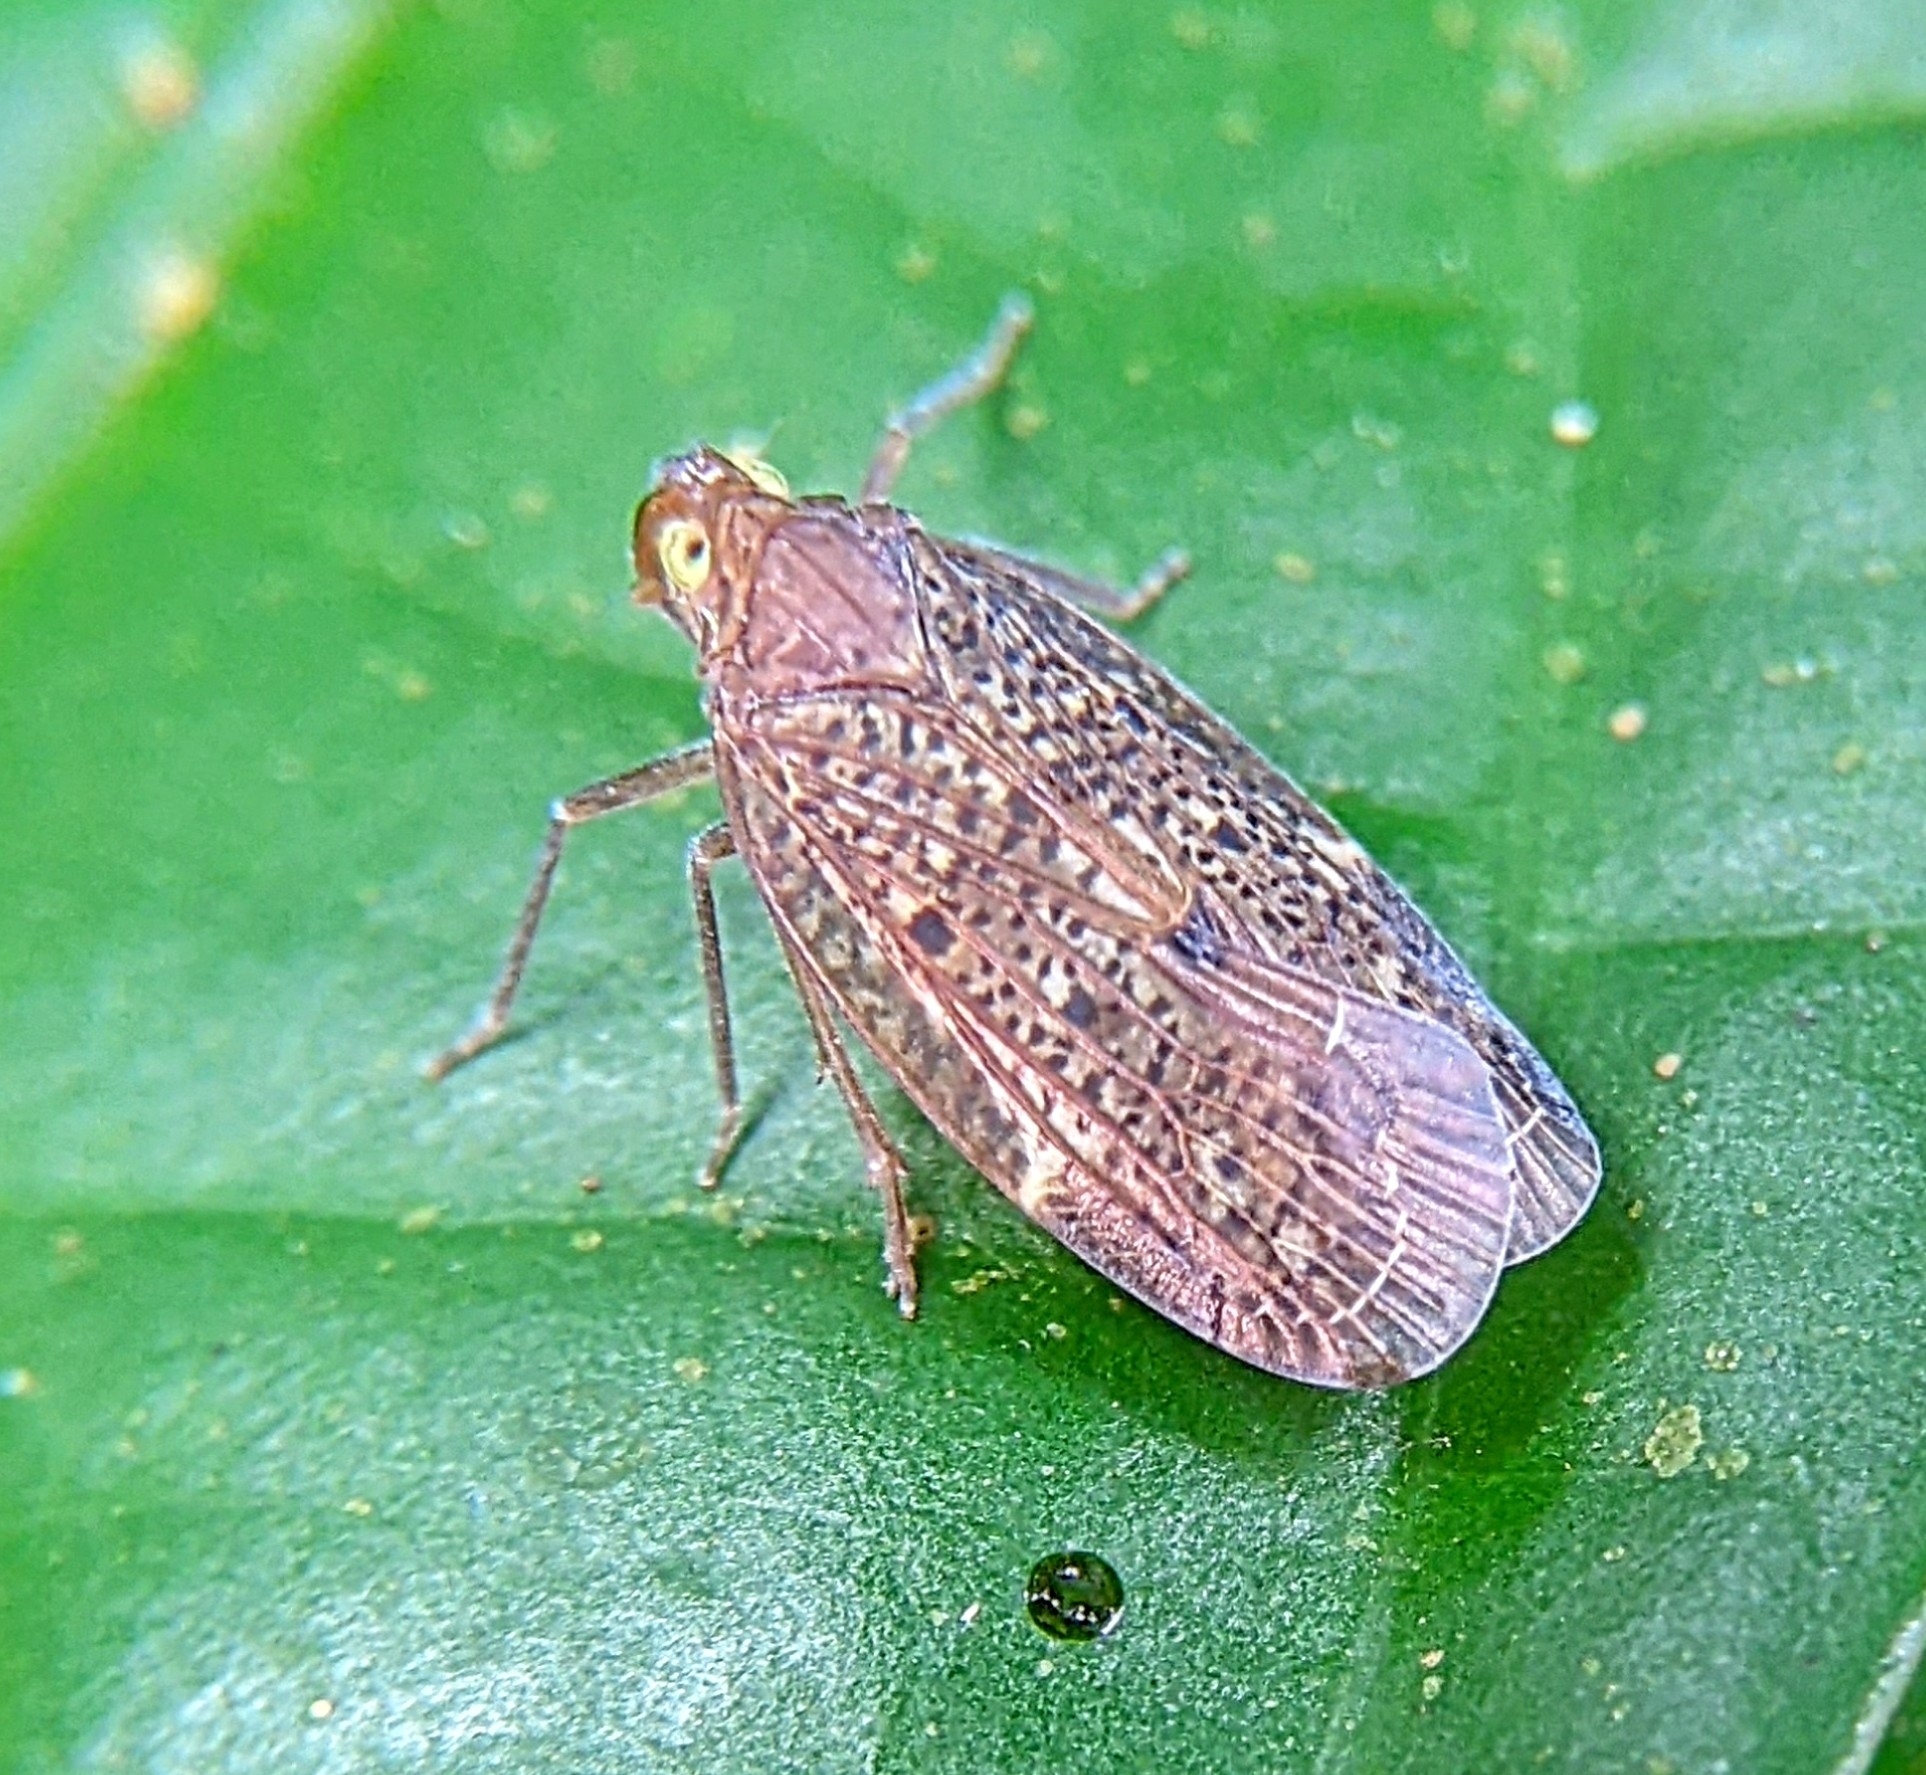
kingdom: Animalia
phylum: Arthropoda
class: Insecta
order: Hemiptera
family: Achilidae
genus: Faventilla
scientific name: Faventilla pustulata
